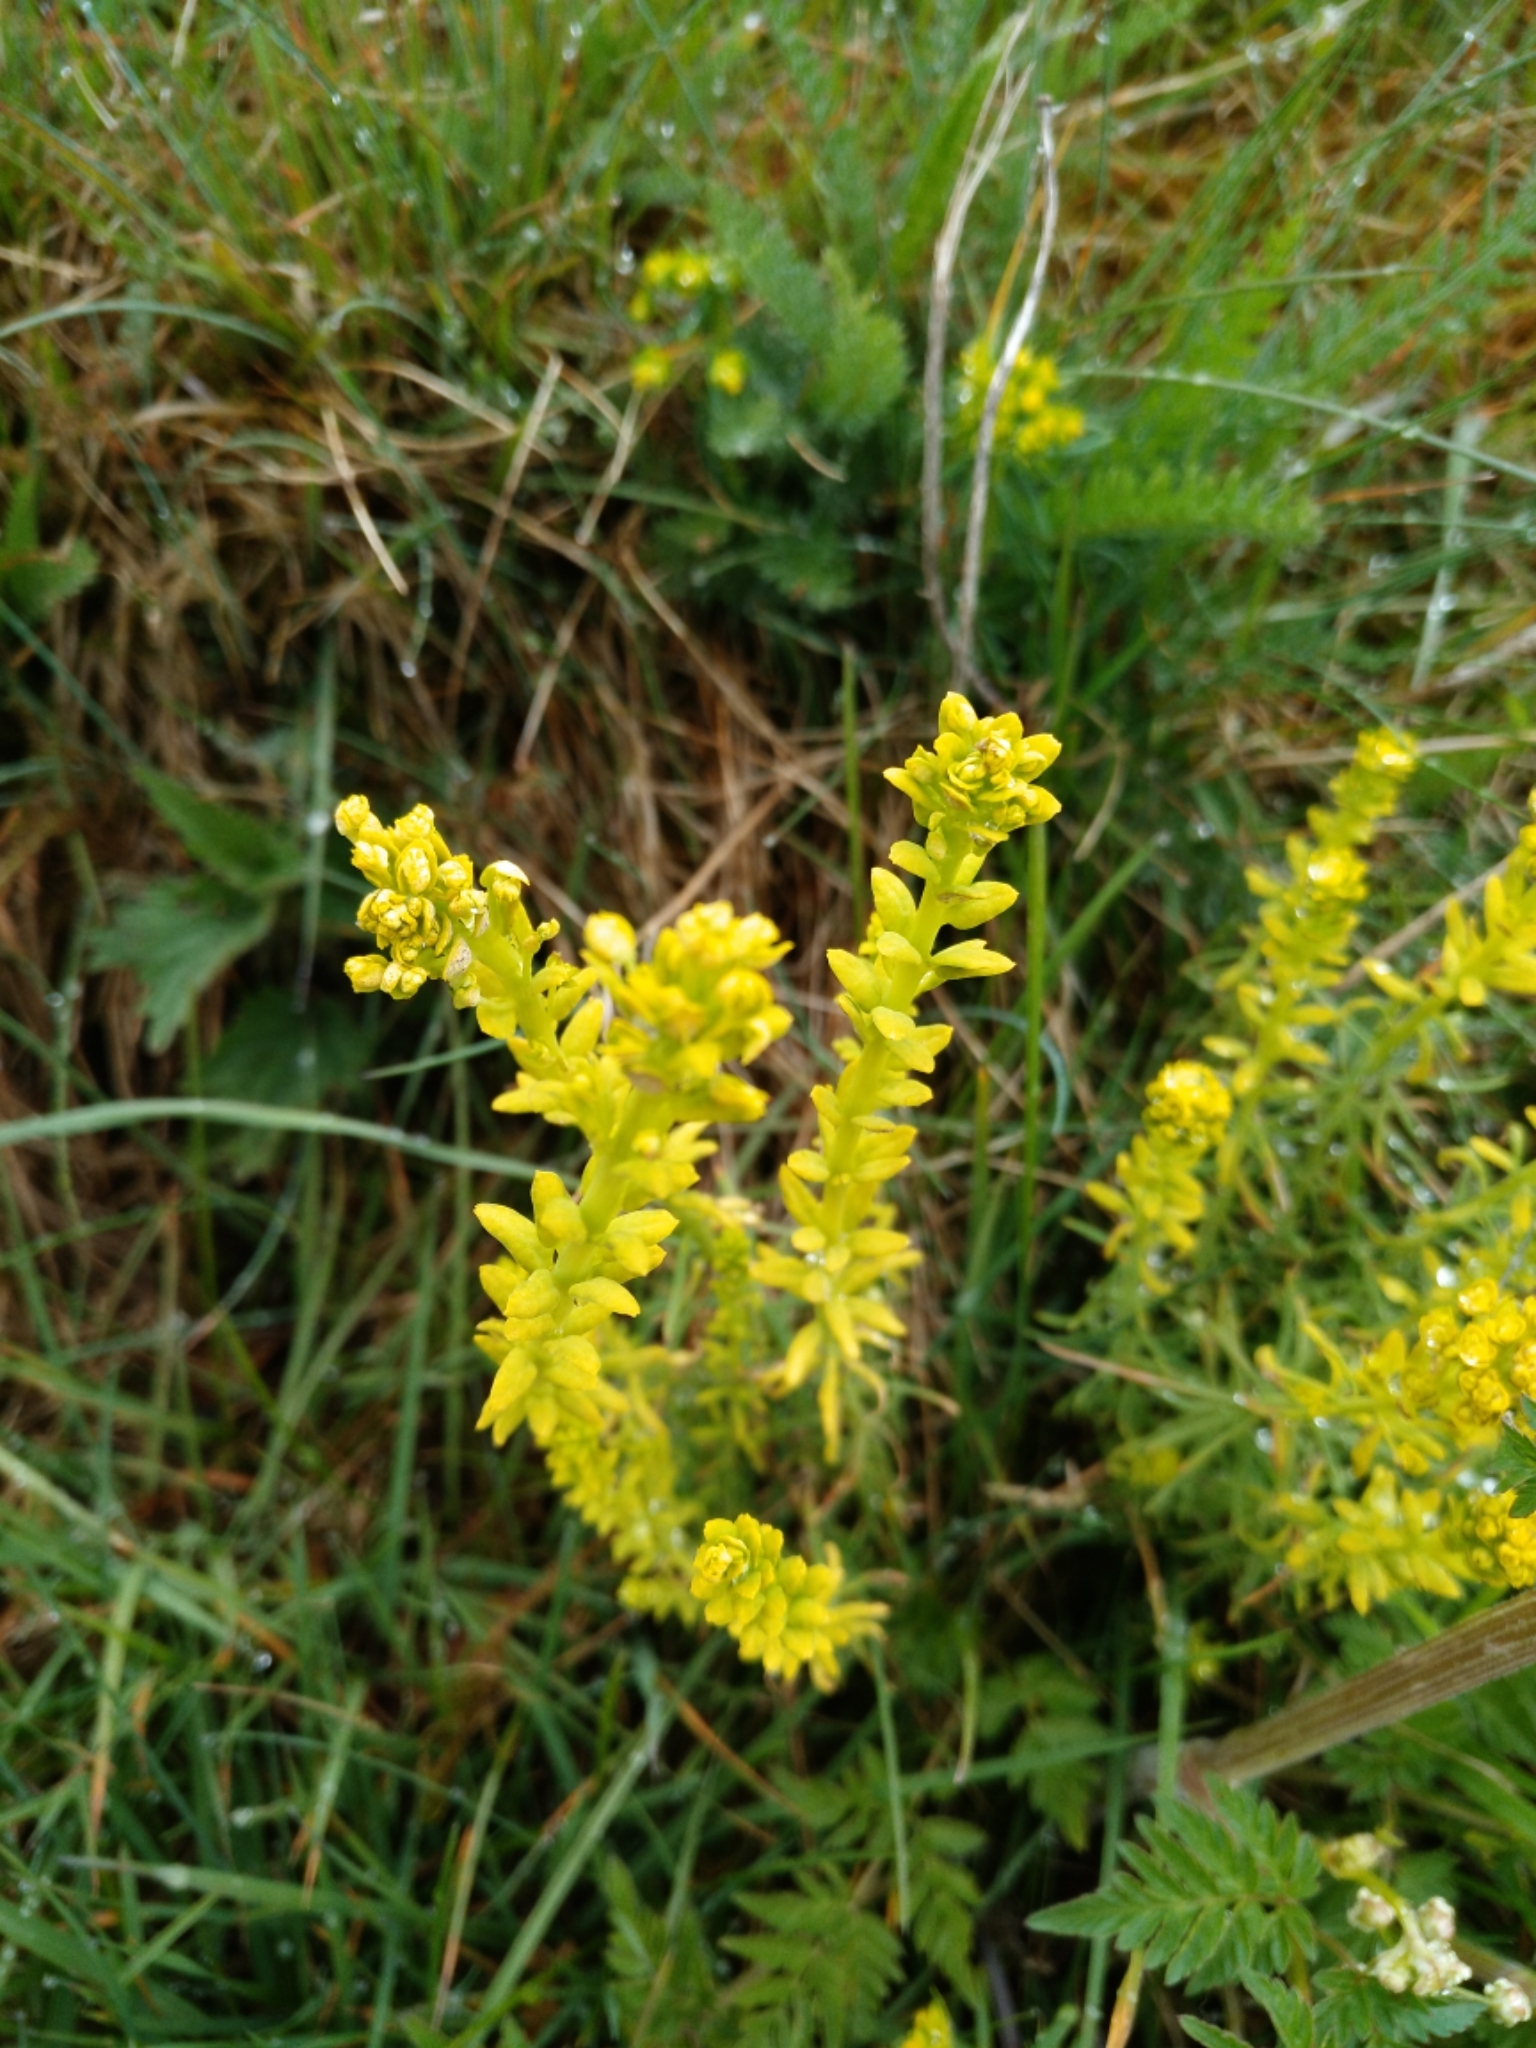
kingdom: Plantae
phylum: Tracheophyta
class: Magnoliopsida
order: Malpighiales
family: Euphorbiaceae
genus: Euphorbia
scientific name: Euphorbia cyparissias
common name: Cypress spurge
